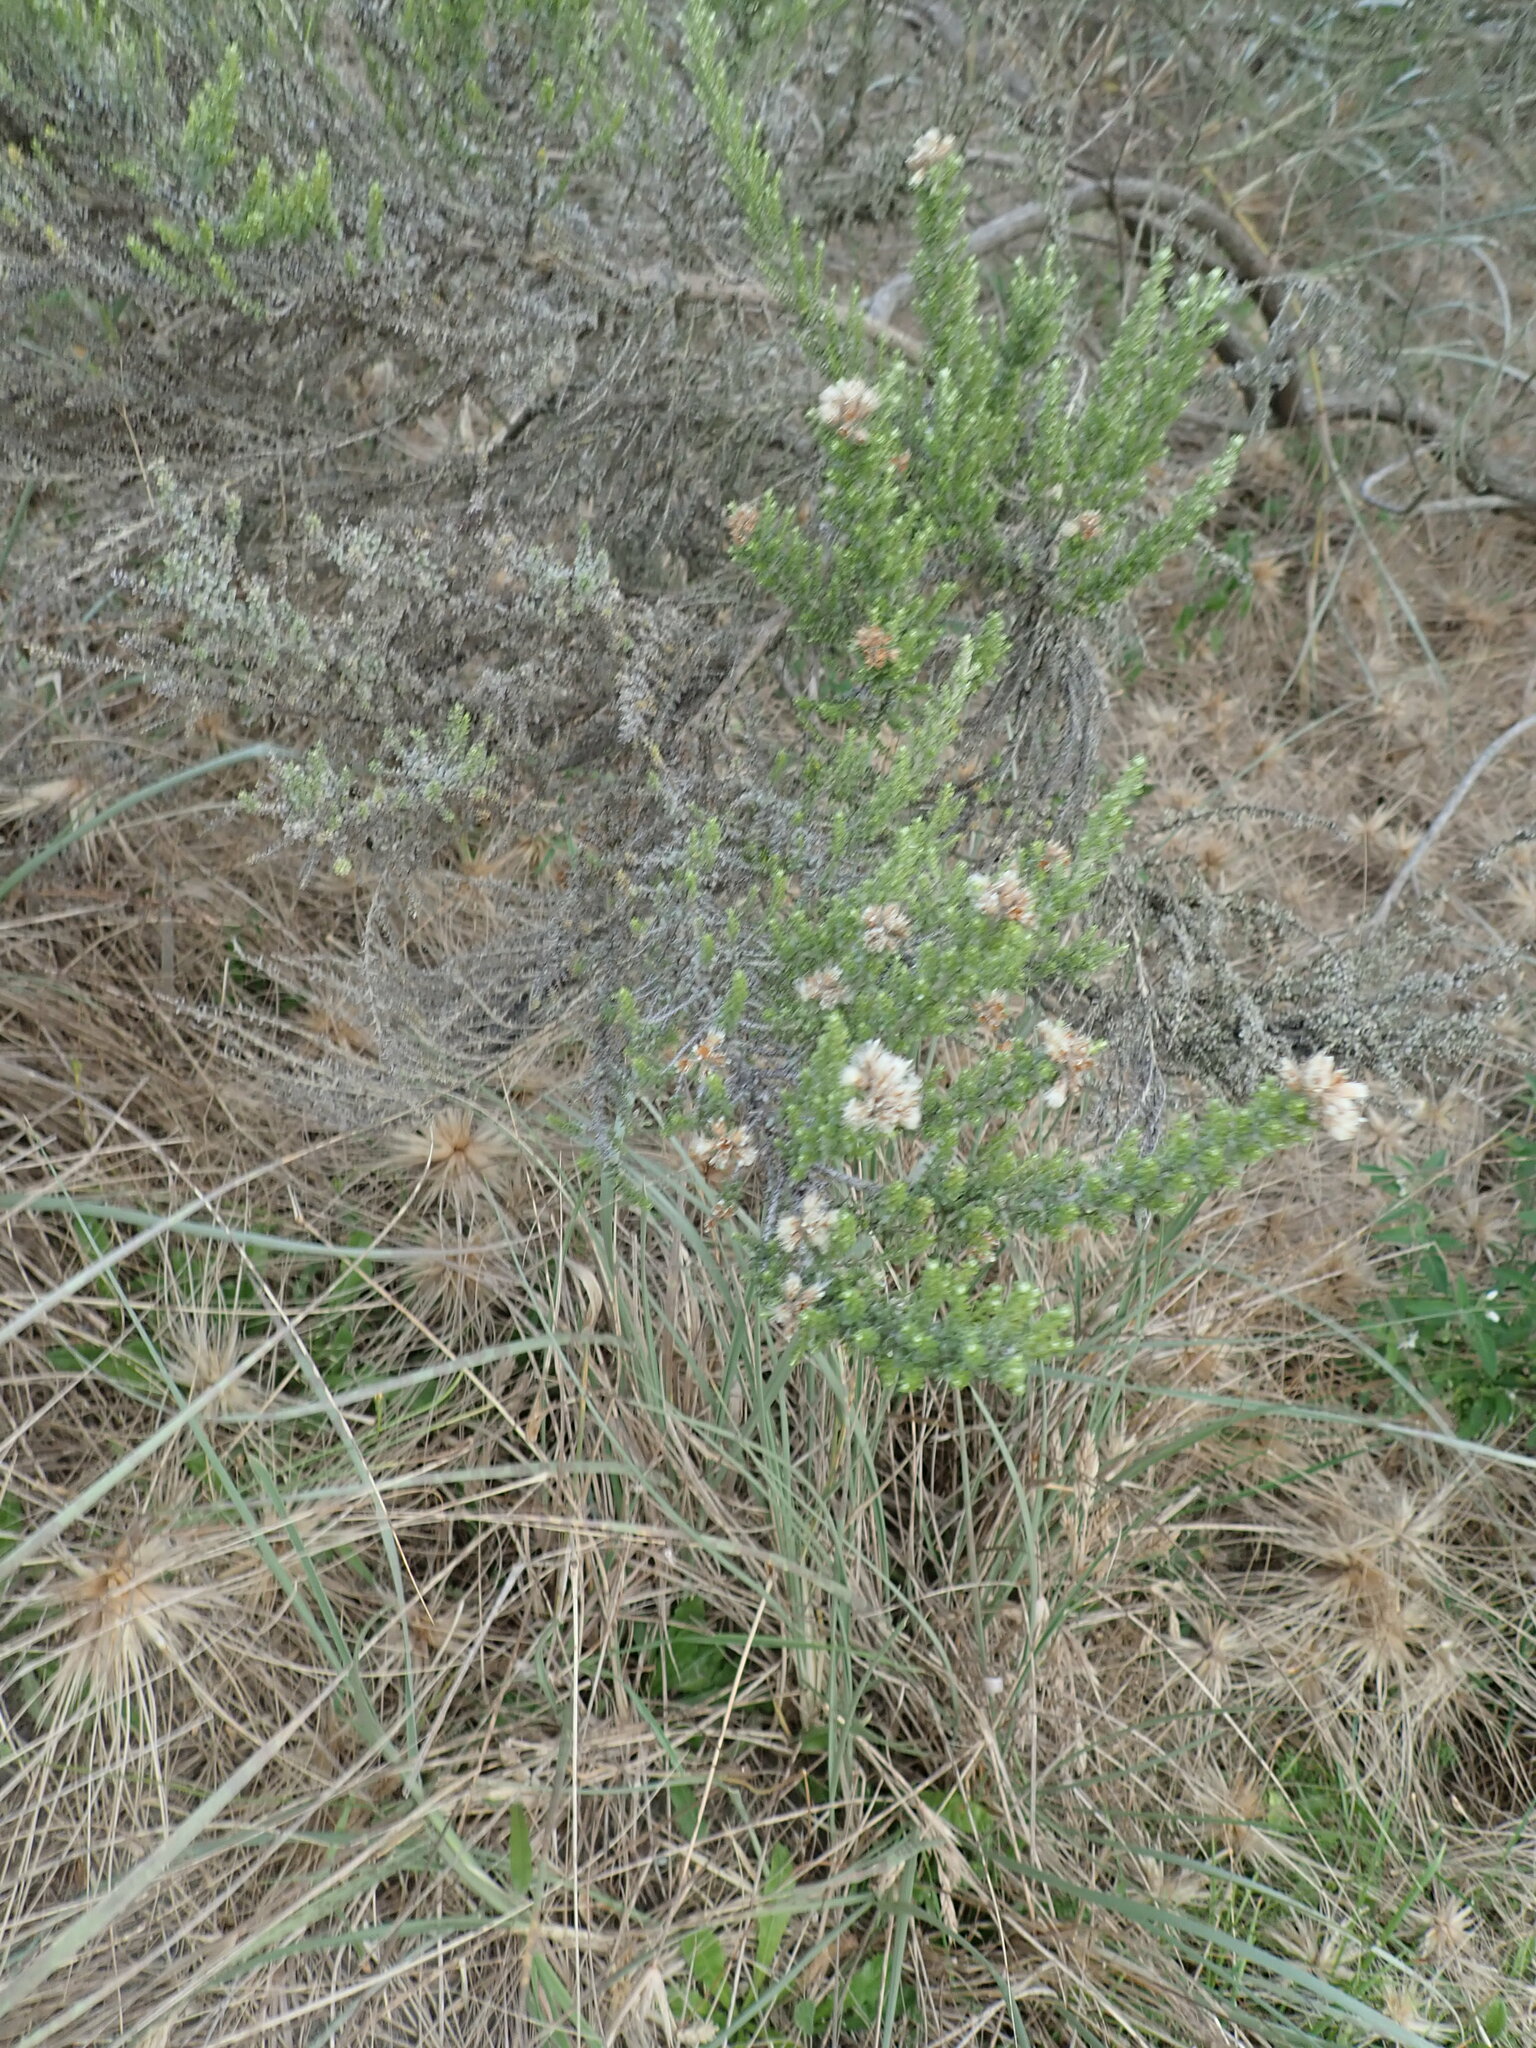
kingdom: Plantae
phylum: Tracheophyta
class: Magnoliopsida
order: Solanales
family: Solanaceae
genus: Solanum
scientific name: Solanum chenopodioides
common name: Tall nightshade
